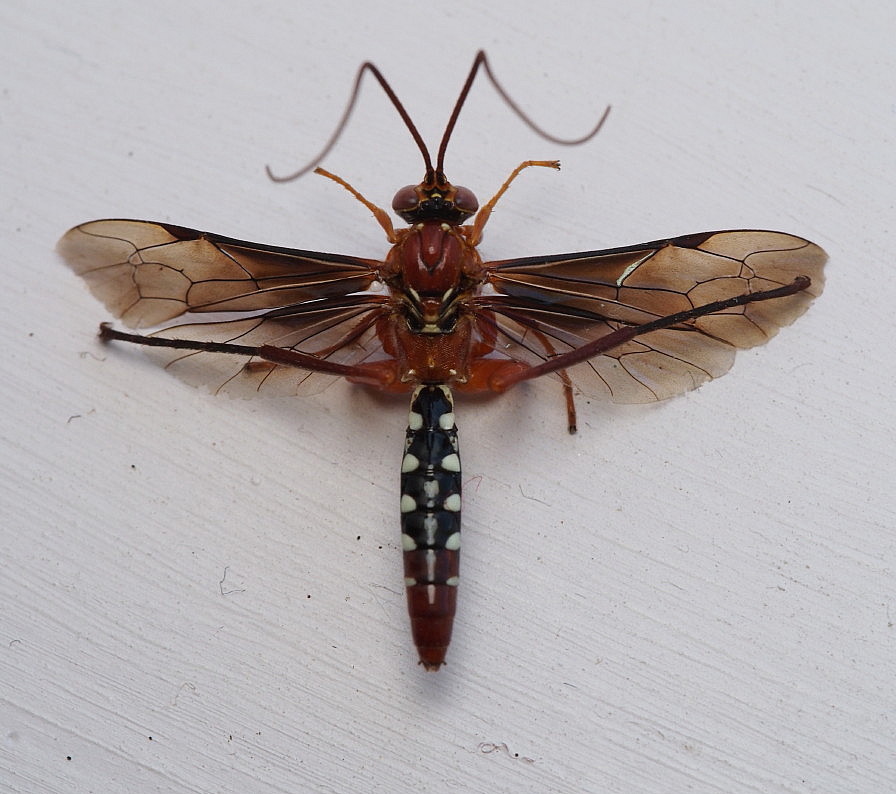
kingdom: Animalia
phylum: Arthropoda
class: Insecta
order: Hymenoptera
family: Ichneumonidae
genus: Lissopimpla
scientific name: Lissopimpla excelsa
